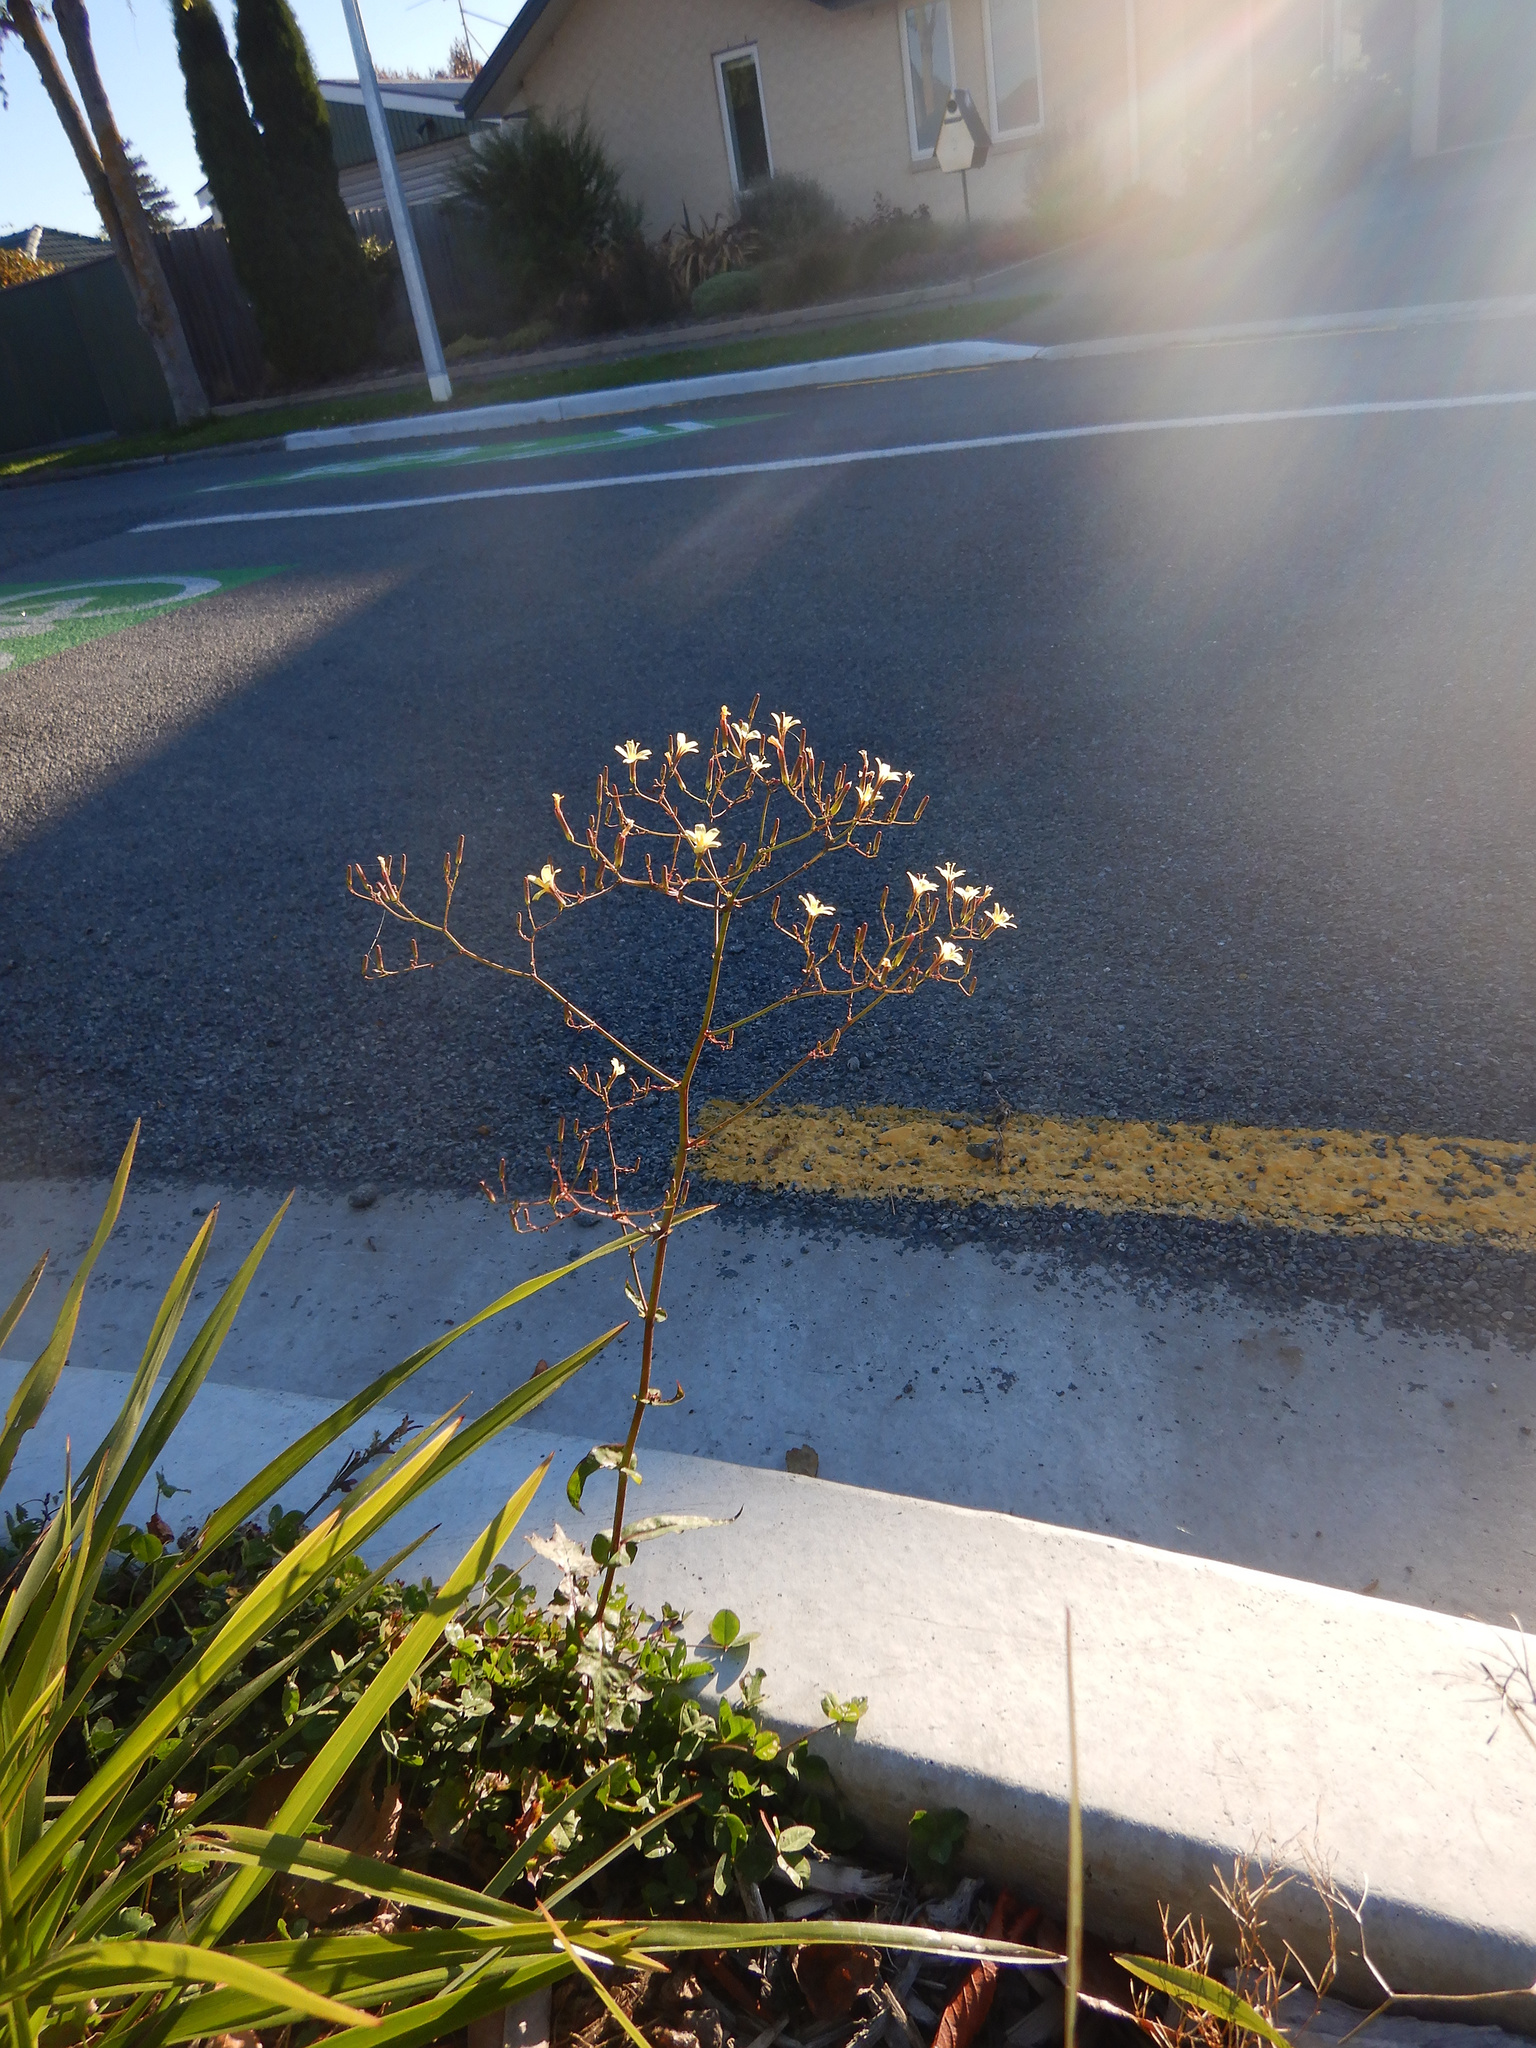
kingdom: Plantae
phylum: Tracheophyta
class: Magnoliopsida
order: Asterales
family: Asteraceae
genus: Mycelis
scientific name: Mycelis muralis
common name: Wall lettuce
